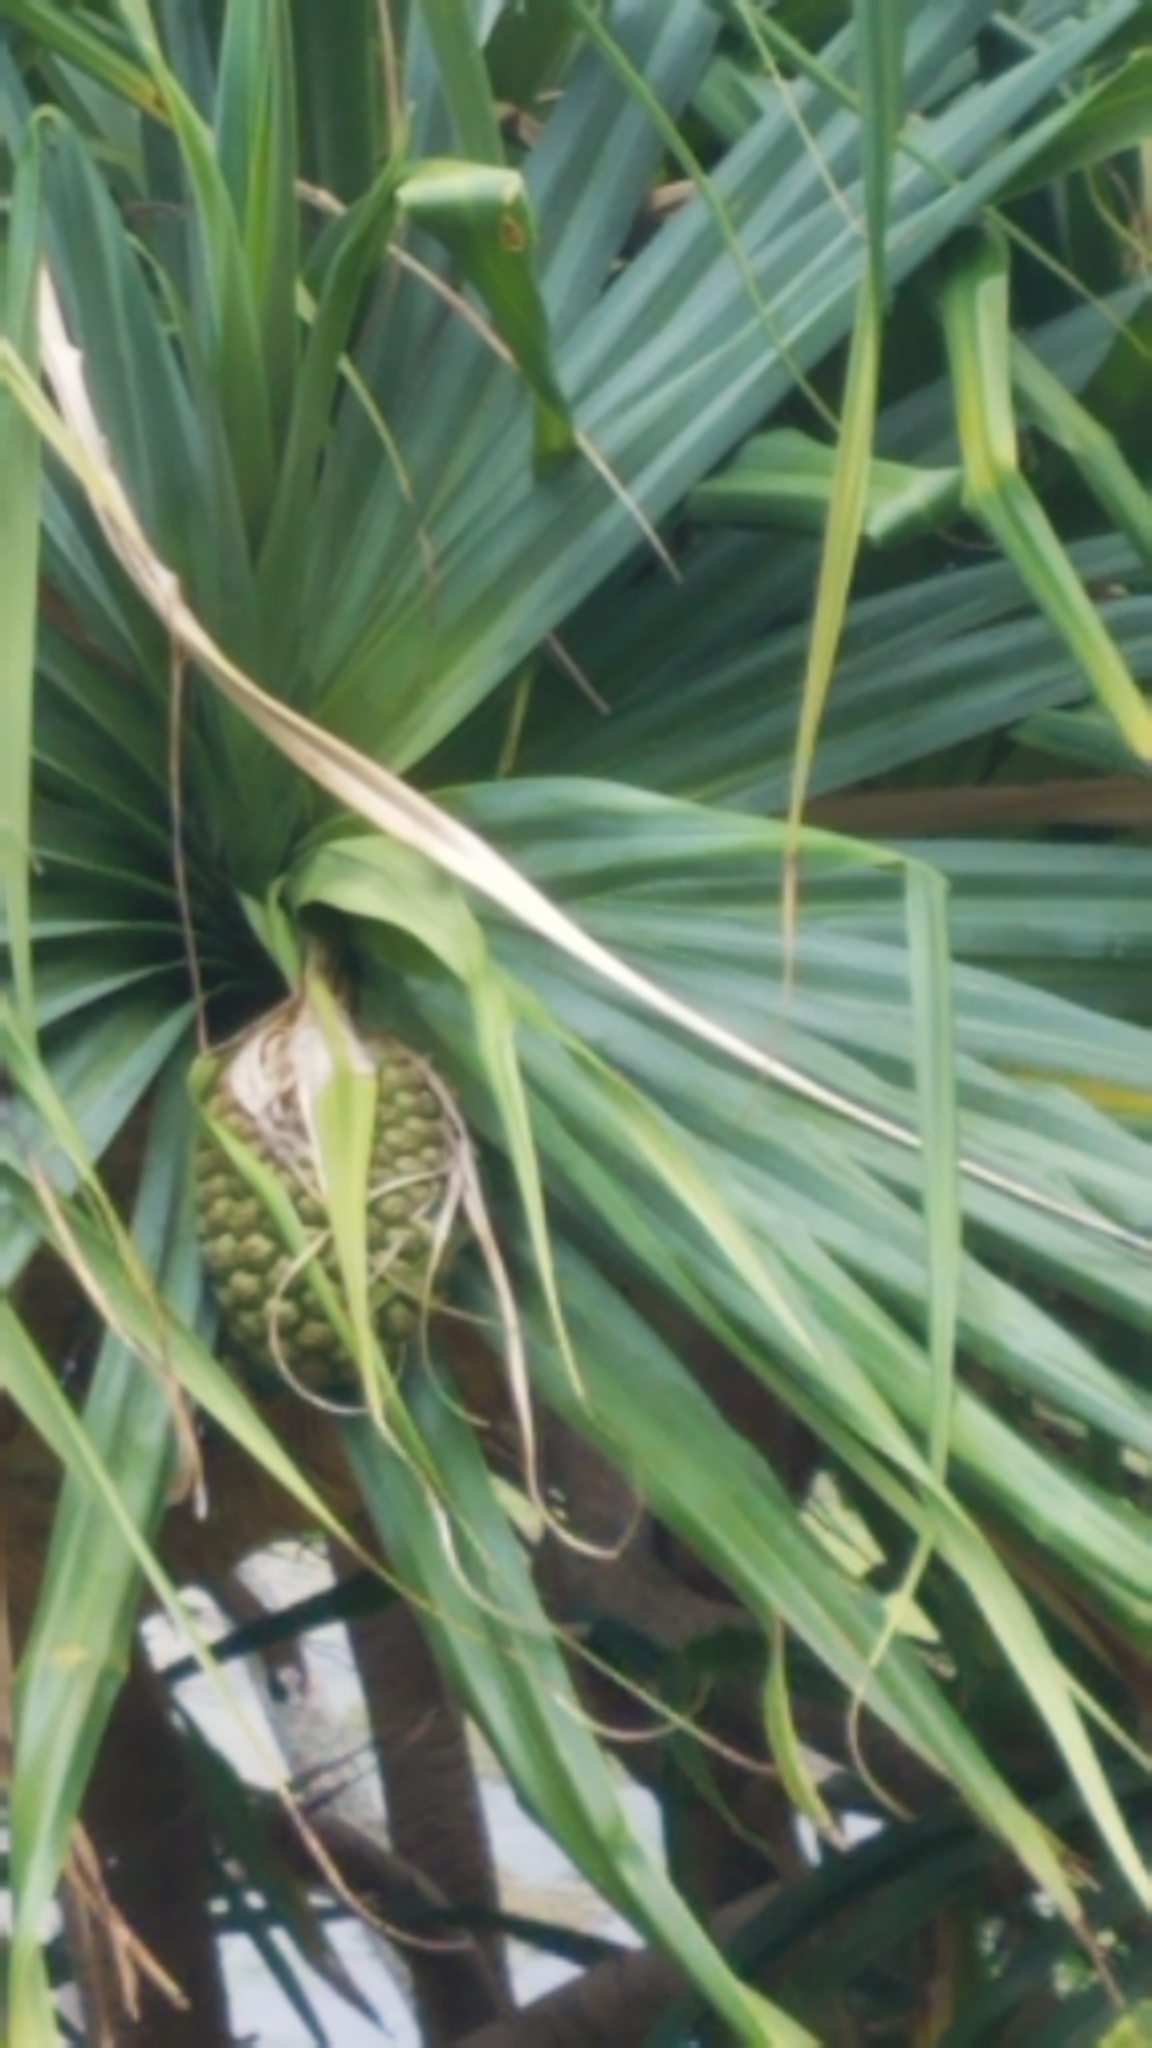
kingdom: Plantae
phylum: Tracheophyta
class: Liliopsida
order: Pandanales
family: Pandanaceae
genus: Pandanus
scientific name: Pandanus tectorius
